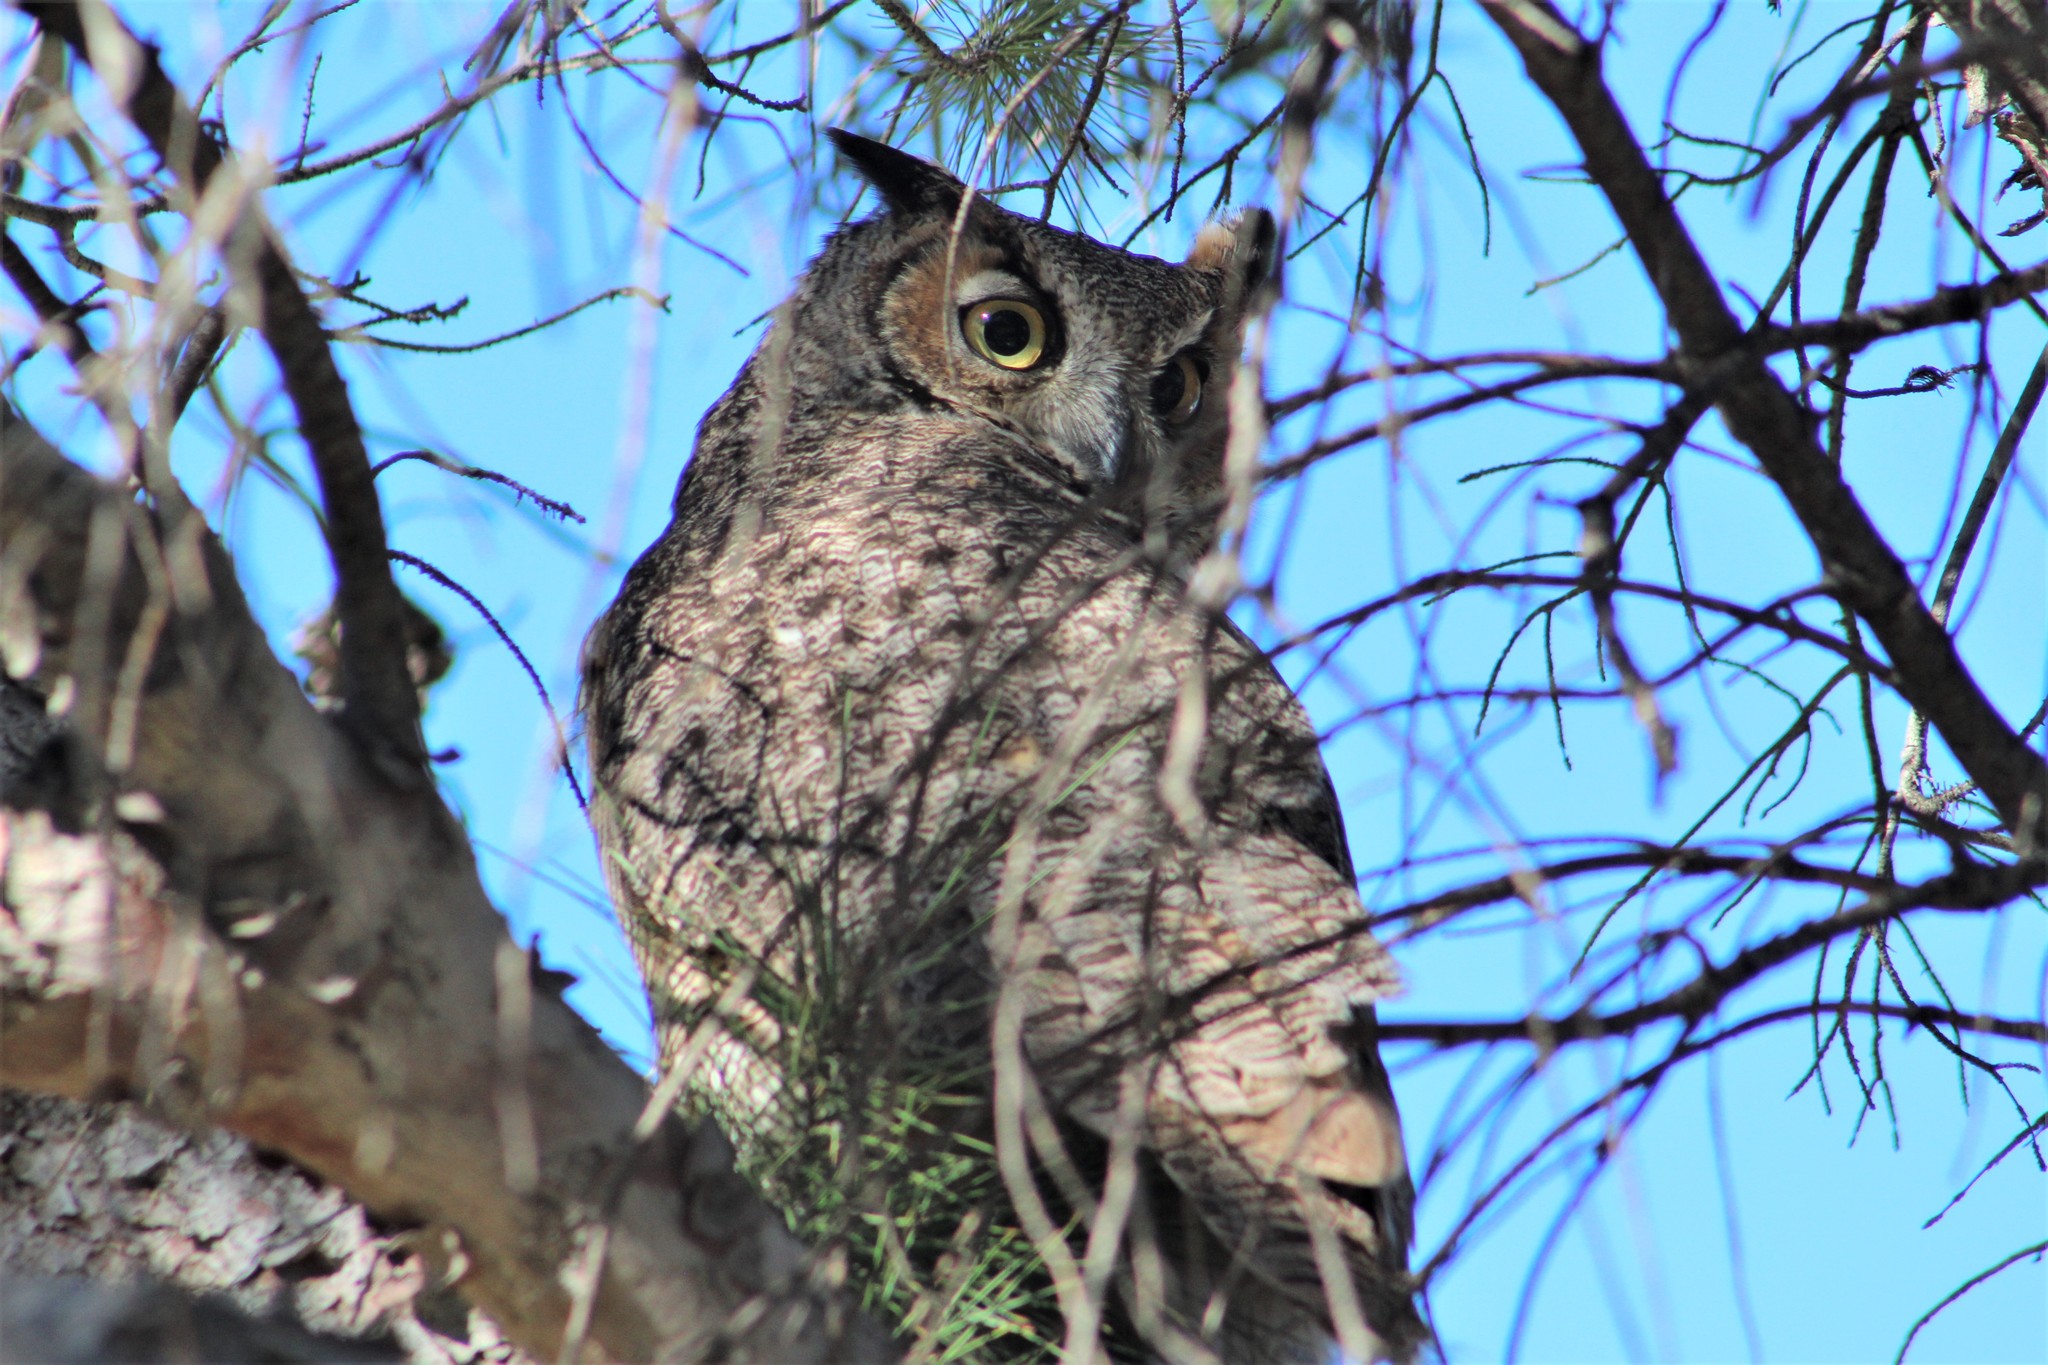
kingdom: Animalia
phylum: Chordata
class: Aves
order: Strigiformes
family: Strigidae
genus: Bubo
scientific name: Bubo virginianus
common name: Great horned owl
